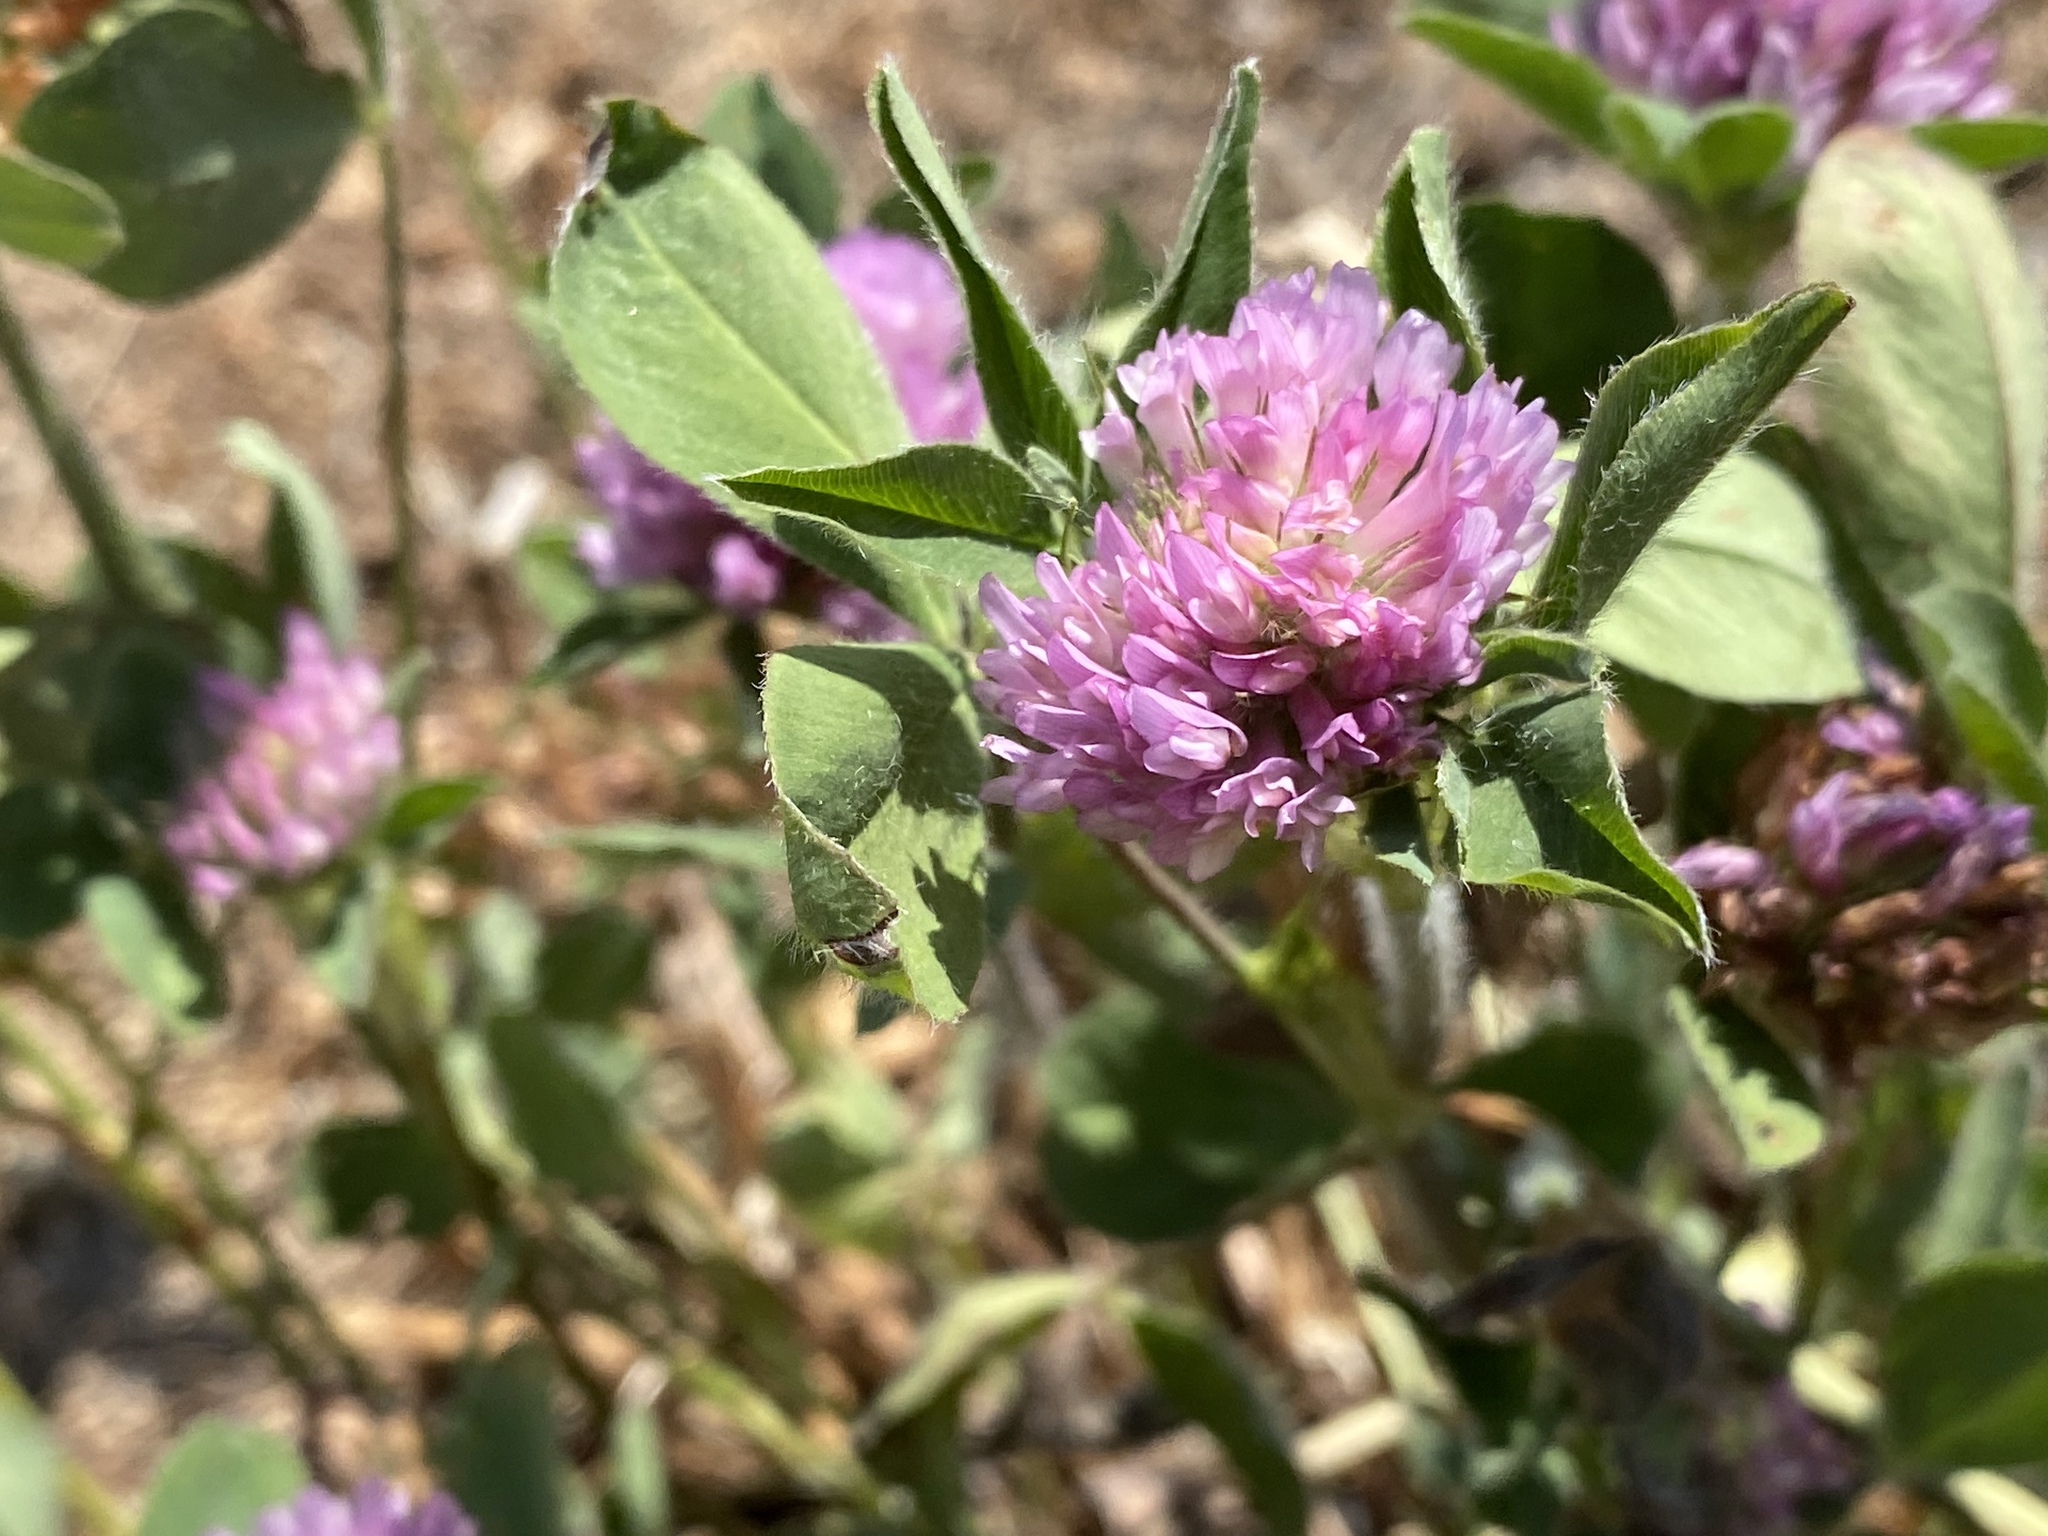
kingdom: Plantae
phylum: Tracheophyta
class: Magnoliopsida
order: Fabales
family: Fabaceae
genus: Trifolium
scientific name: Trifolium pratense
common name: Red clover
